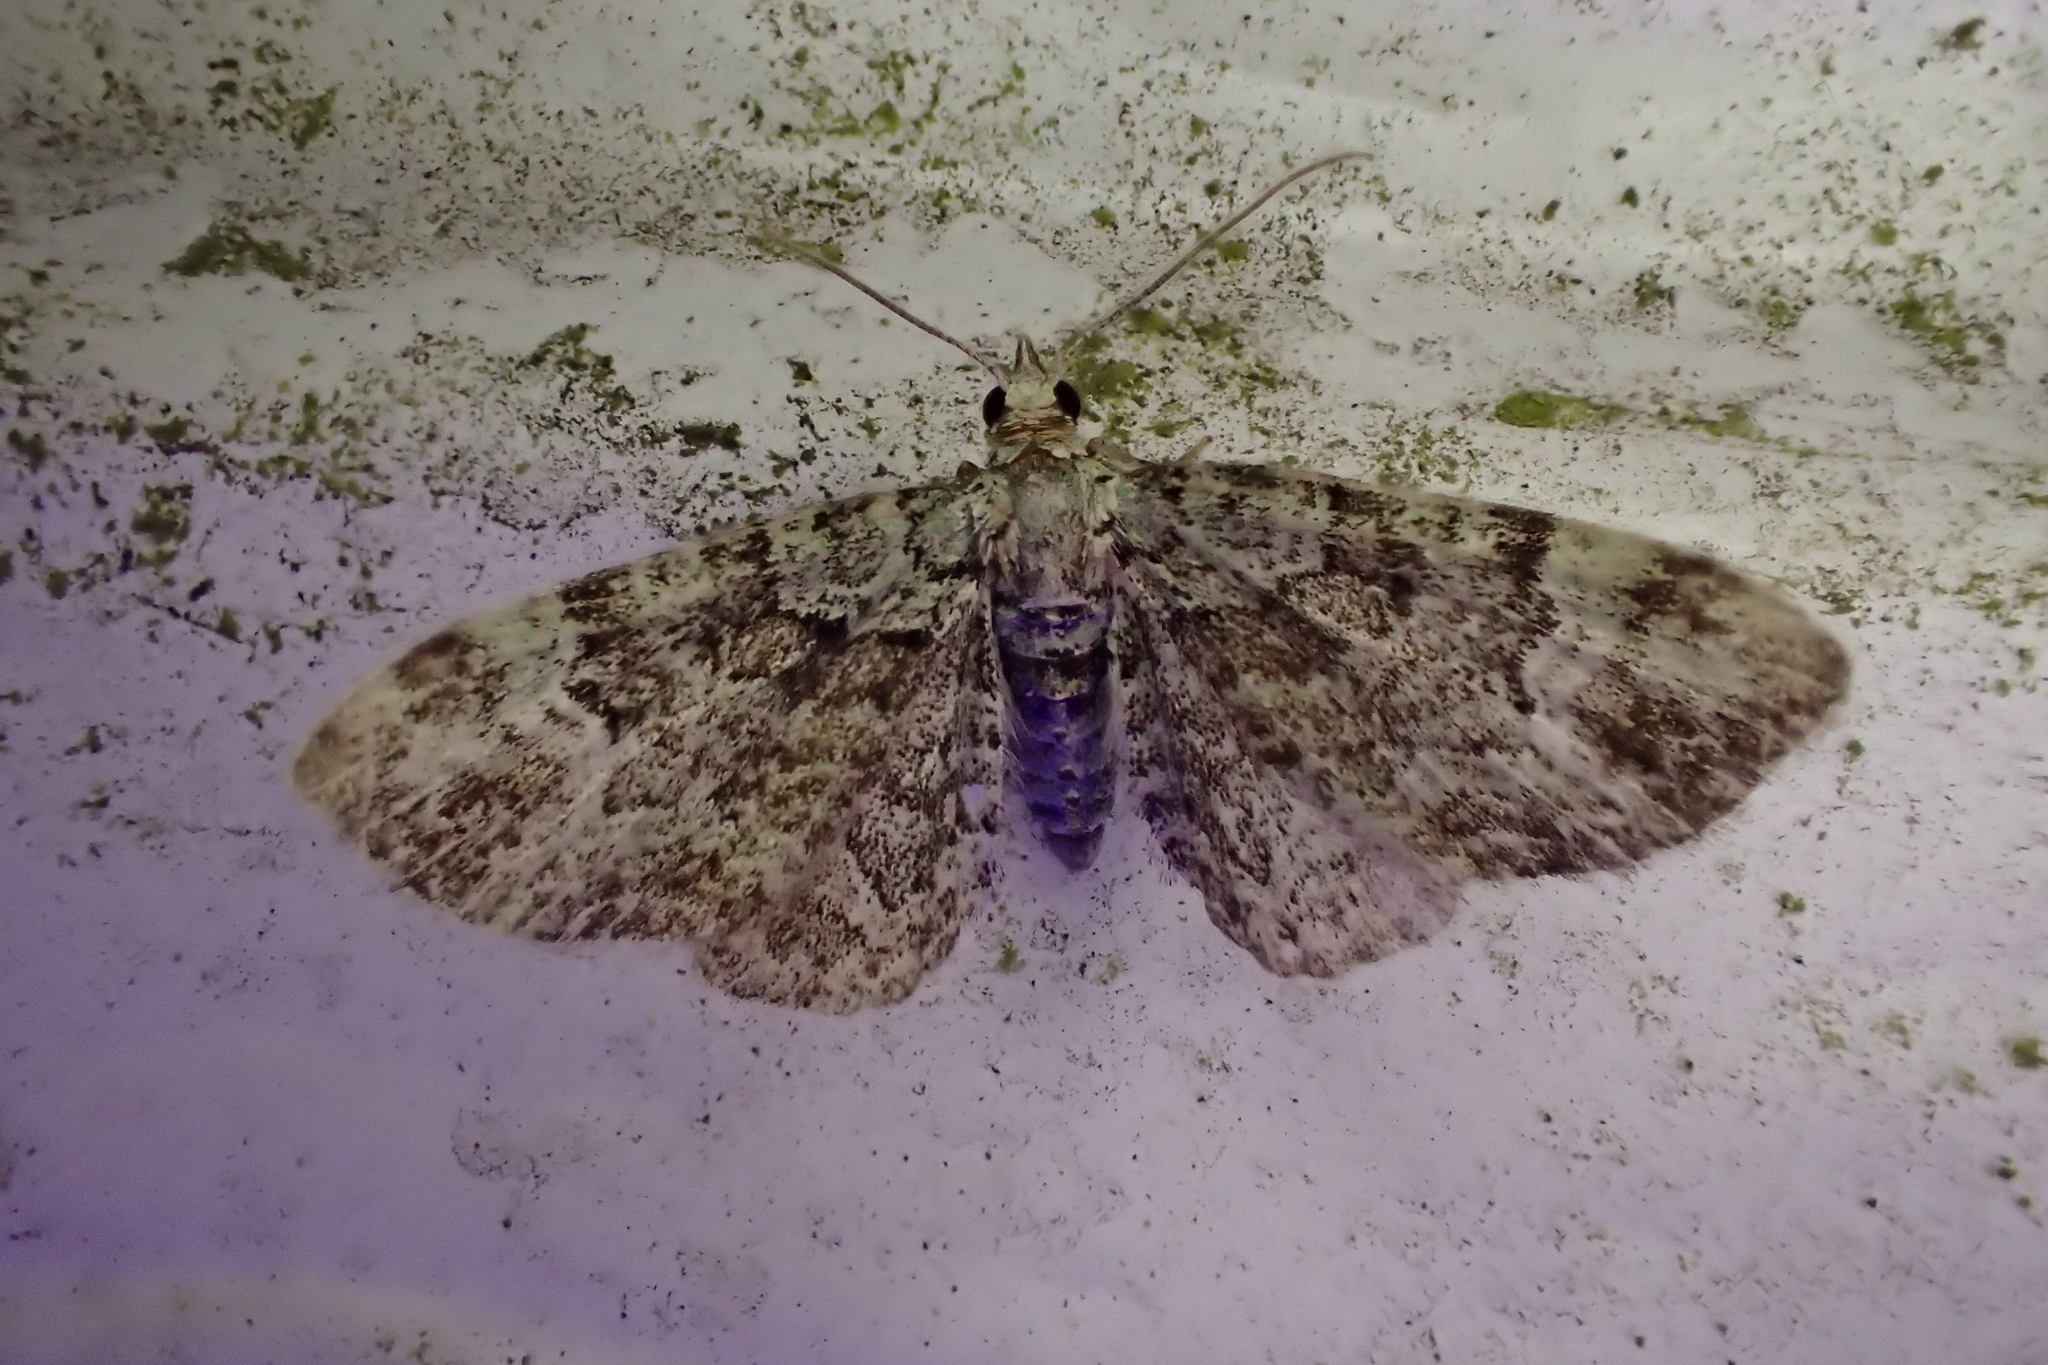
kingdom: Animalia
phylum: Arthropoda
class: Insecta
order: Lepidoptera
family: Geometridae
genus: Pasiphila
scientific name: Pasiphila rectangulata
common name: Green pug
